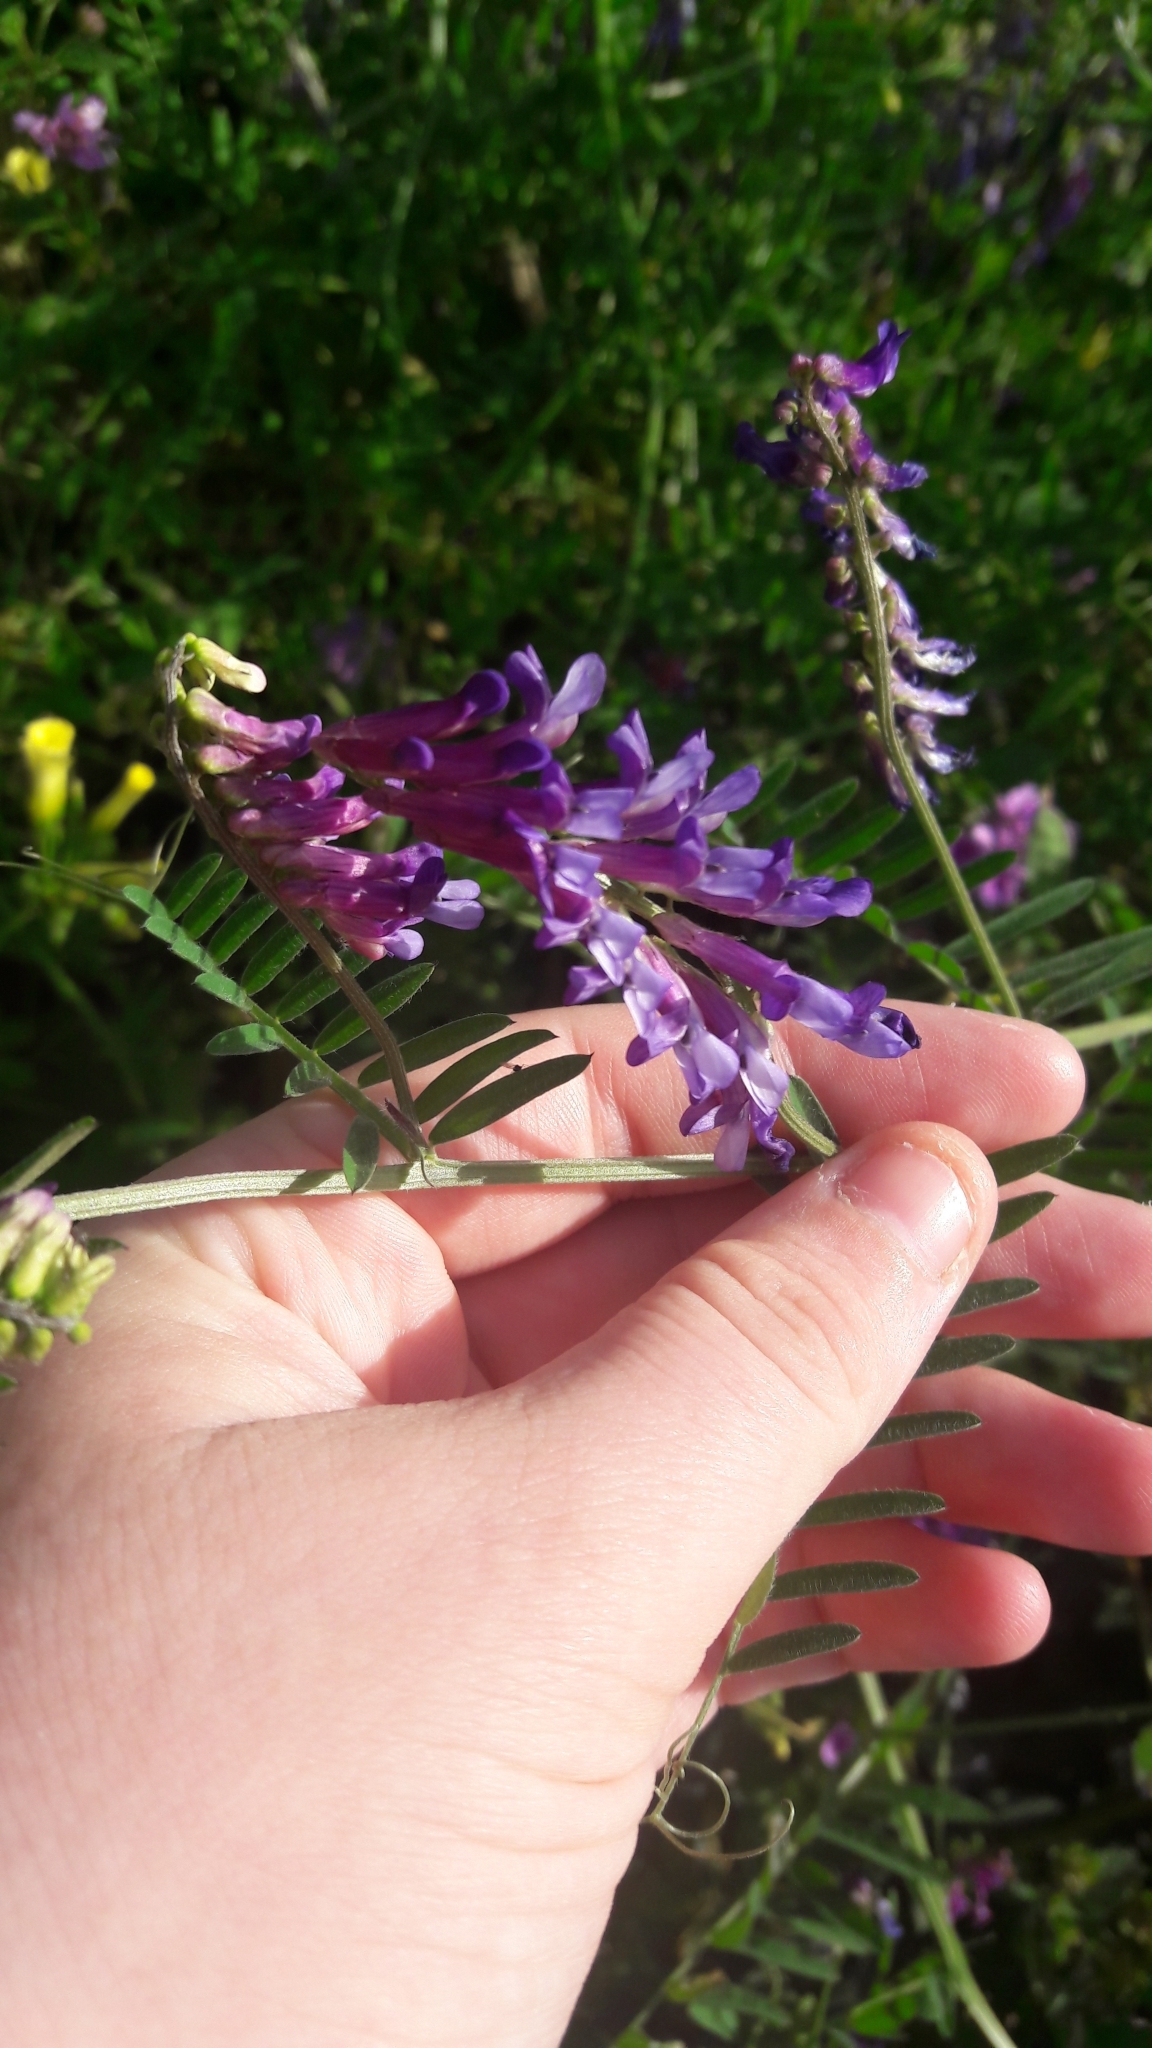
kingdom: Plantae
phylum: Tracheophyta
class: Magnoliopsida
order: Fabales
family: Fabaceae
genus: Vicia
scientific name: Vicia villosa
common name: Fodder vetch
